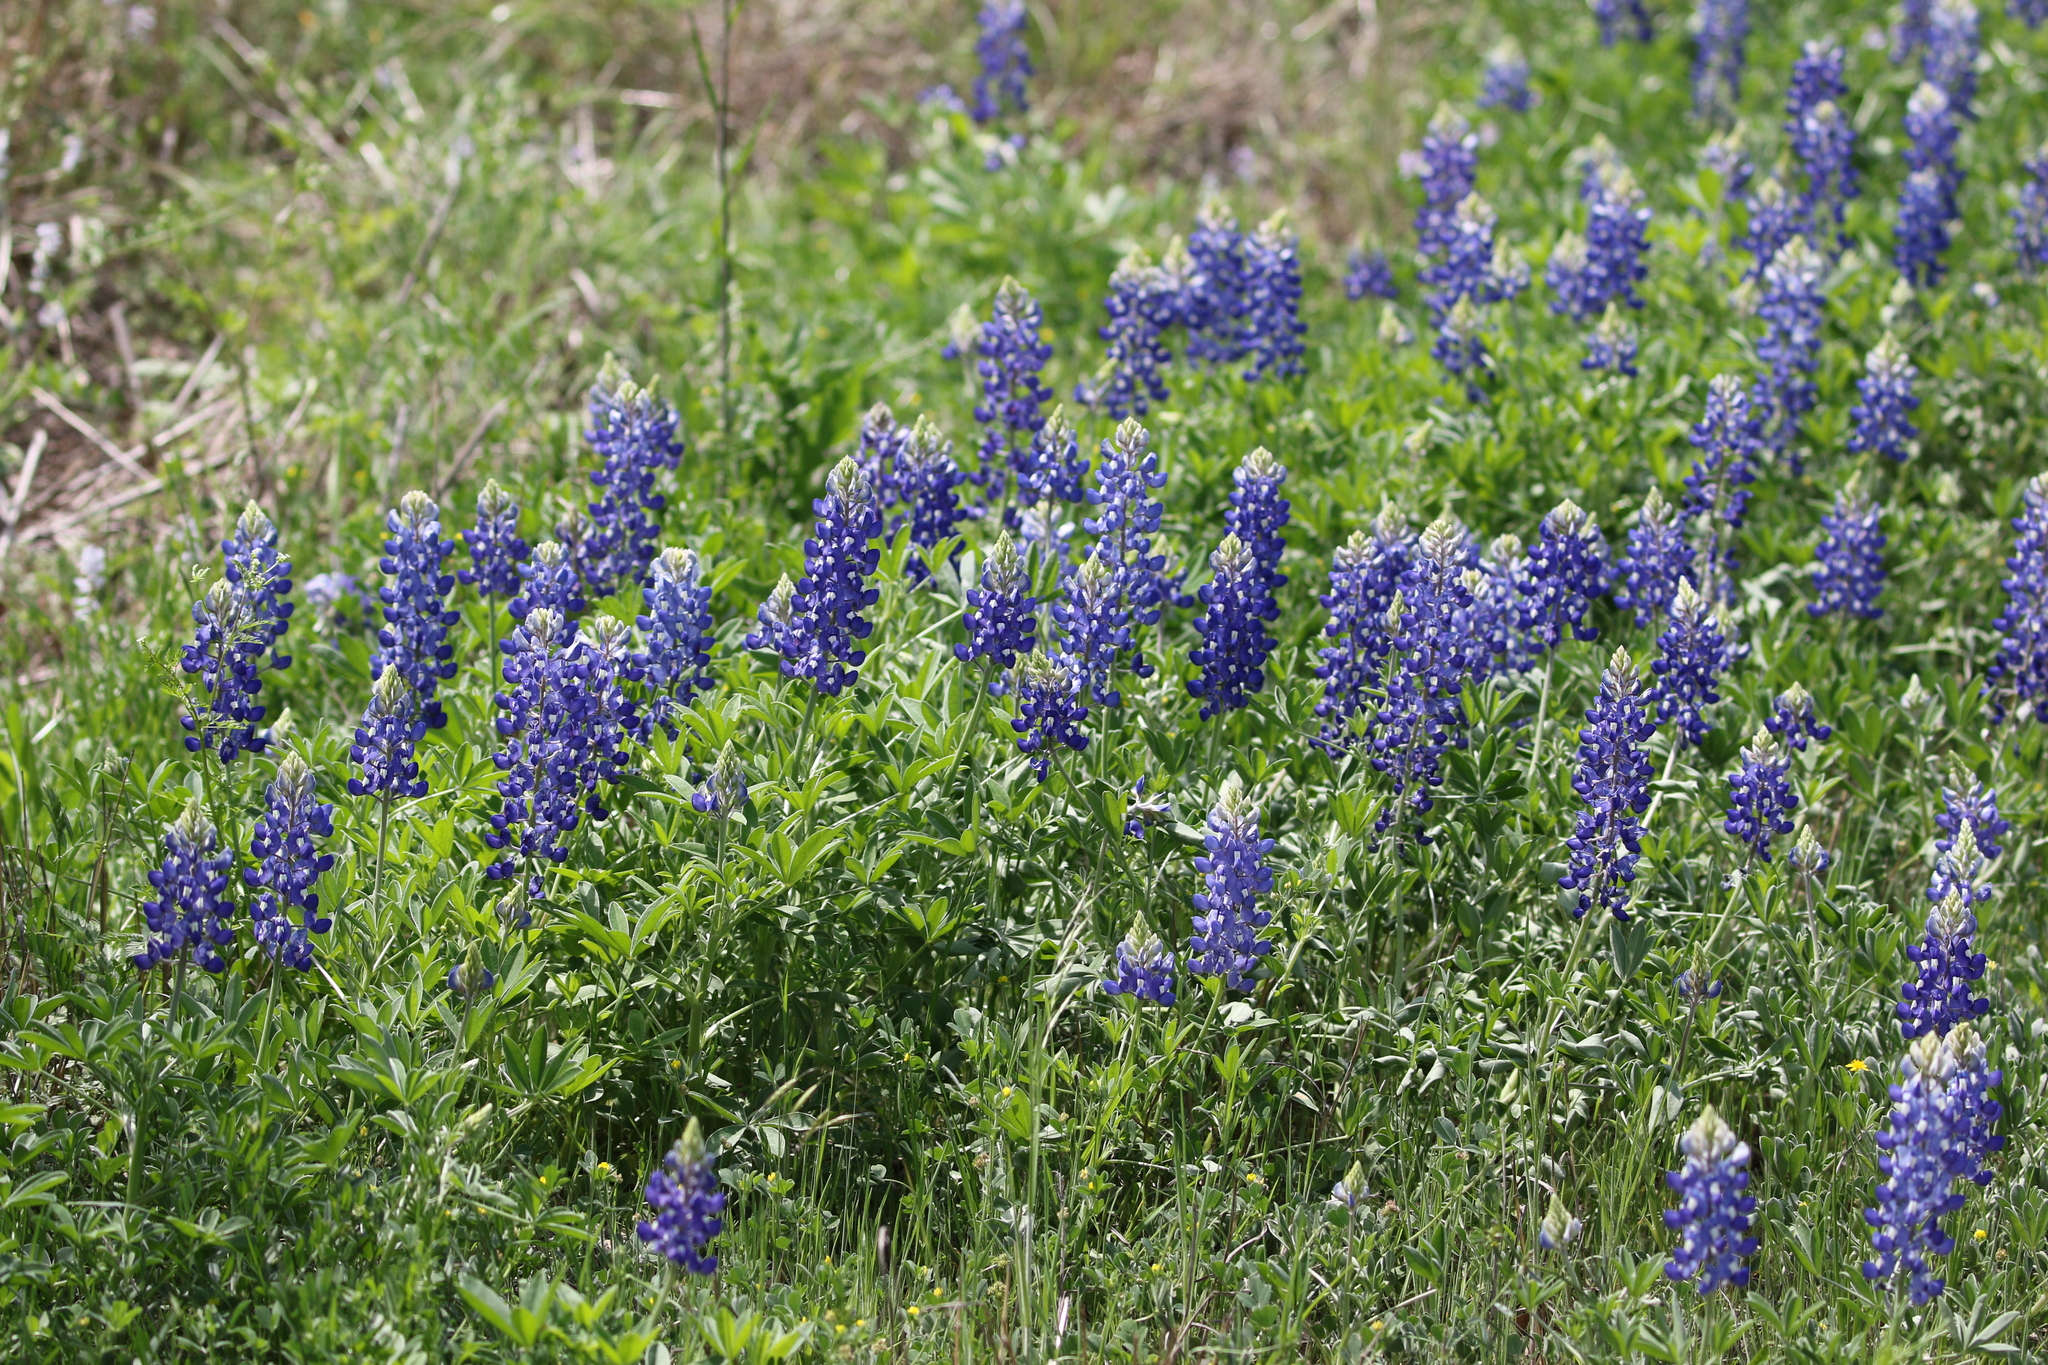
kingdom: Plantae
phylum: Tracheophyta
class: Magnoliopsida
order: Fabales
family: Fabaceae
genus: Lupinus
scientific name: Lupinus texensis
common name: Texas bluebonnet
